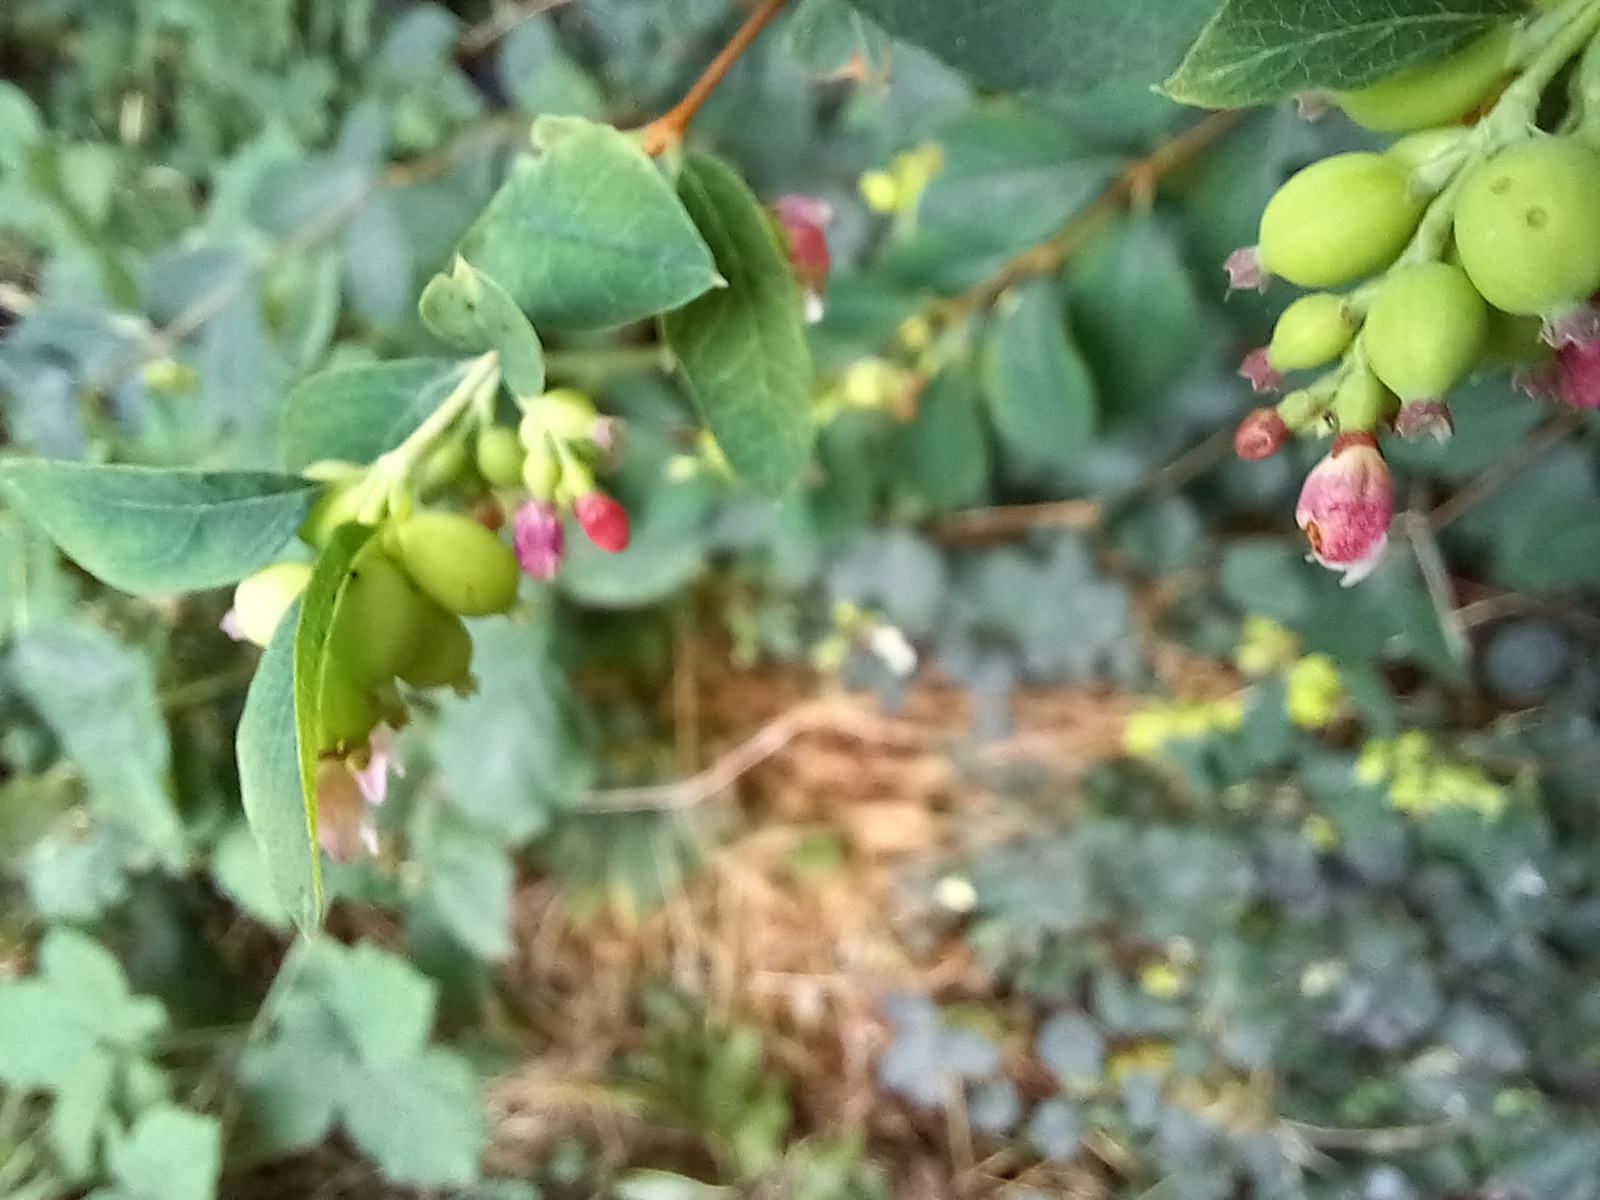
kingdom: Plantae
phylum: Tracheophyta
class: Magnoliopsida
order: Dipsacales
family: Caprifoliaceae
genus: Symphoricarpos
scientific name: Symphoricarpos albus
